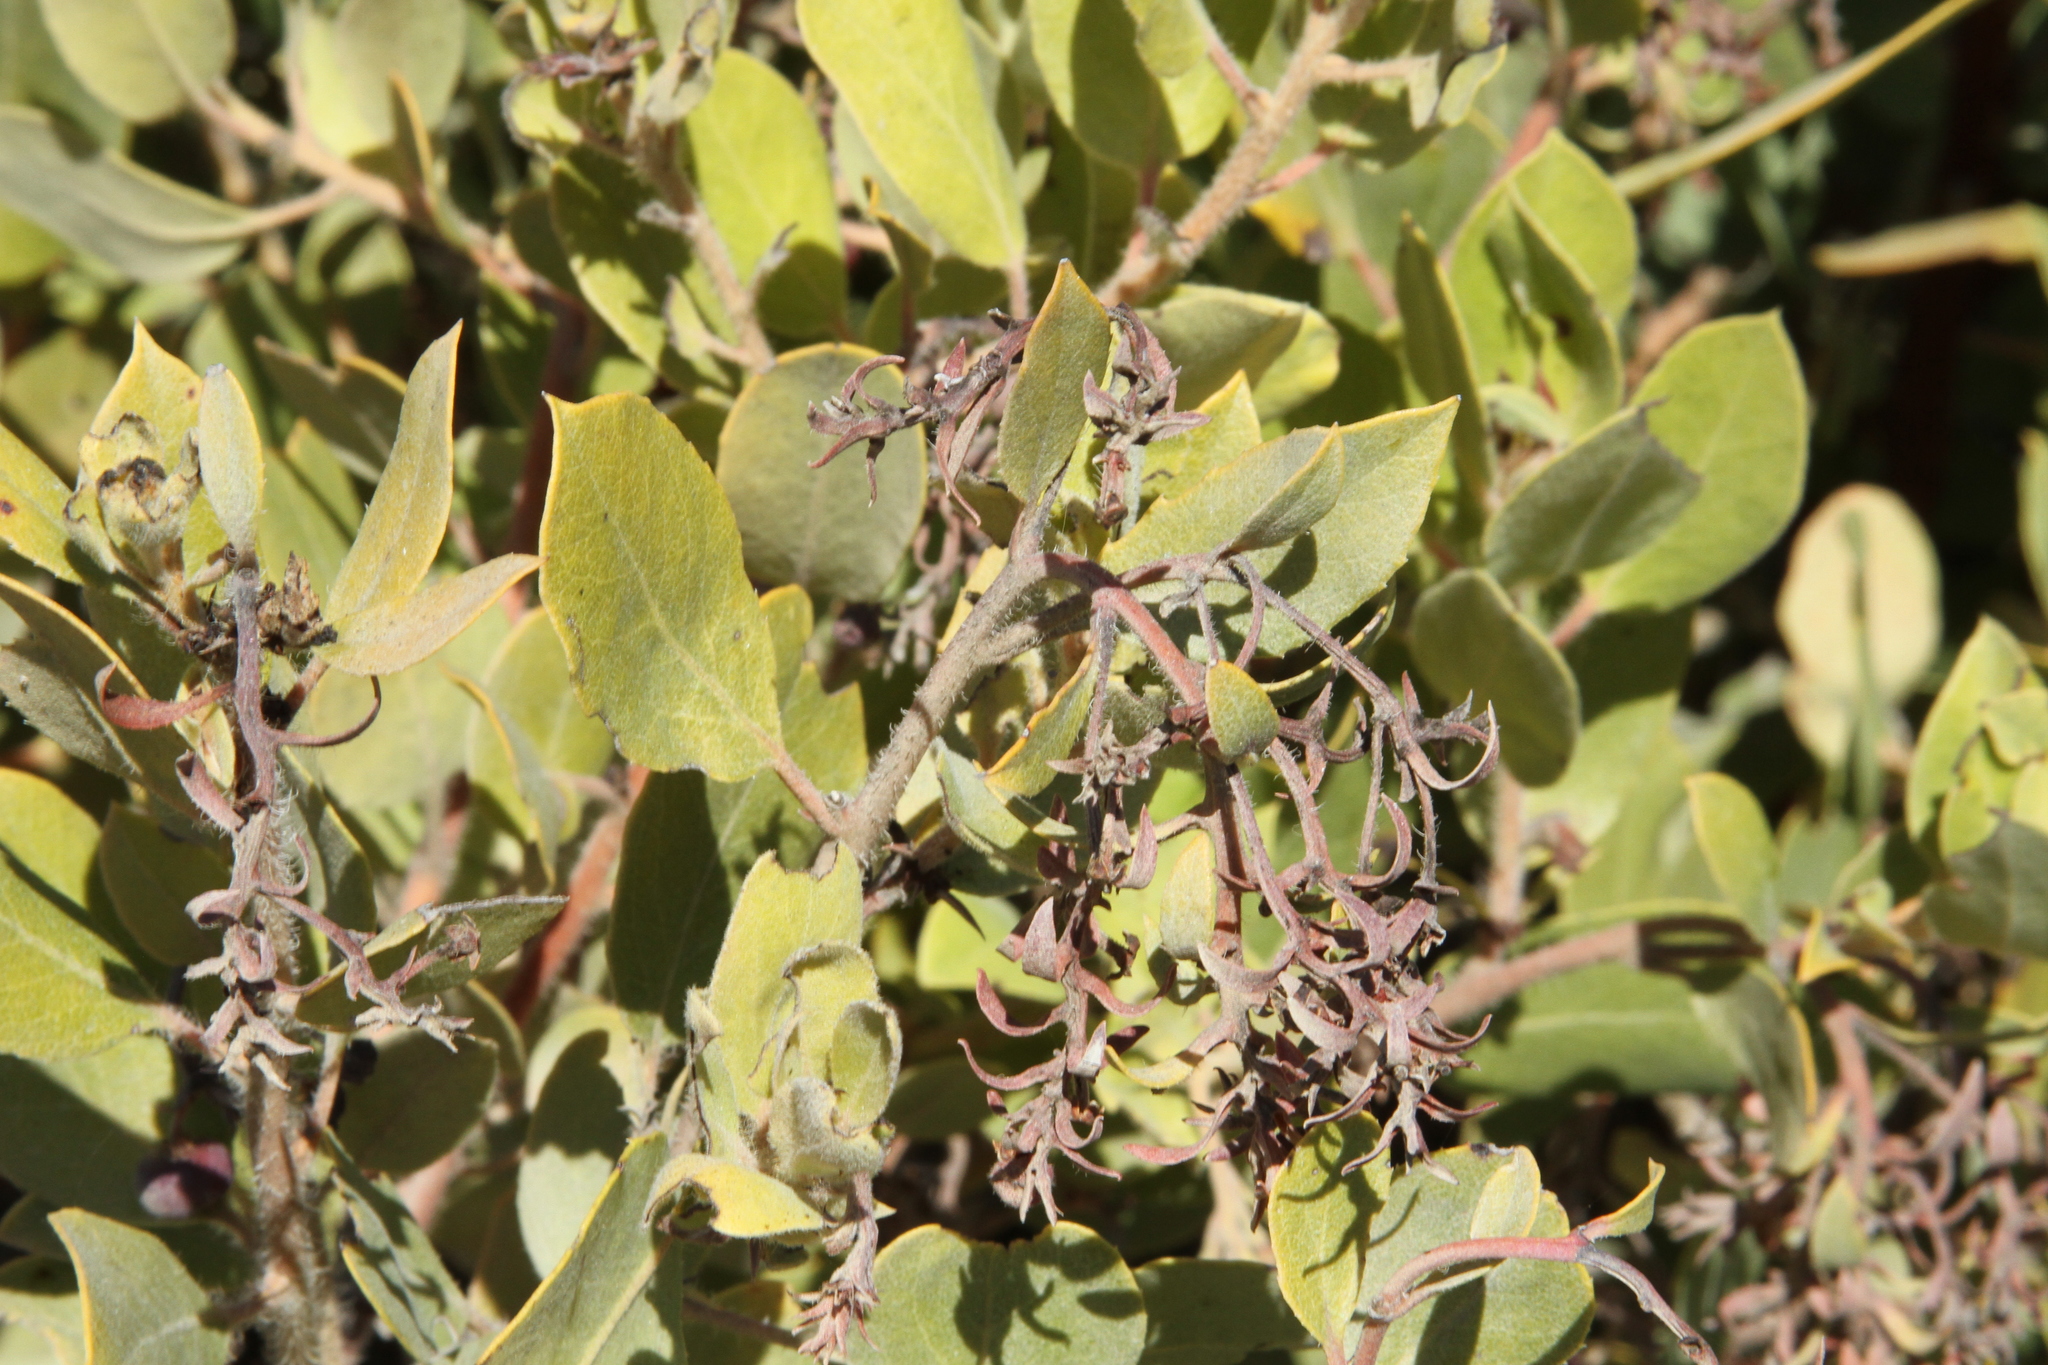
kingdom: Plantae
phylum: Tracheophyta
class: Magnoliopsida
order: Ericales
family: Ericaceae
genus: Arctostaphylos
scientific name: Arctostaphylos crustacea
